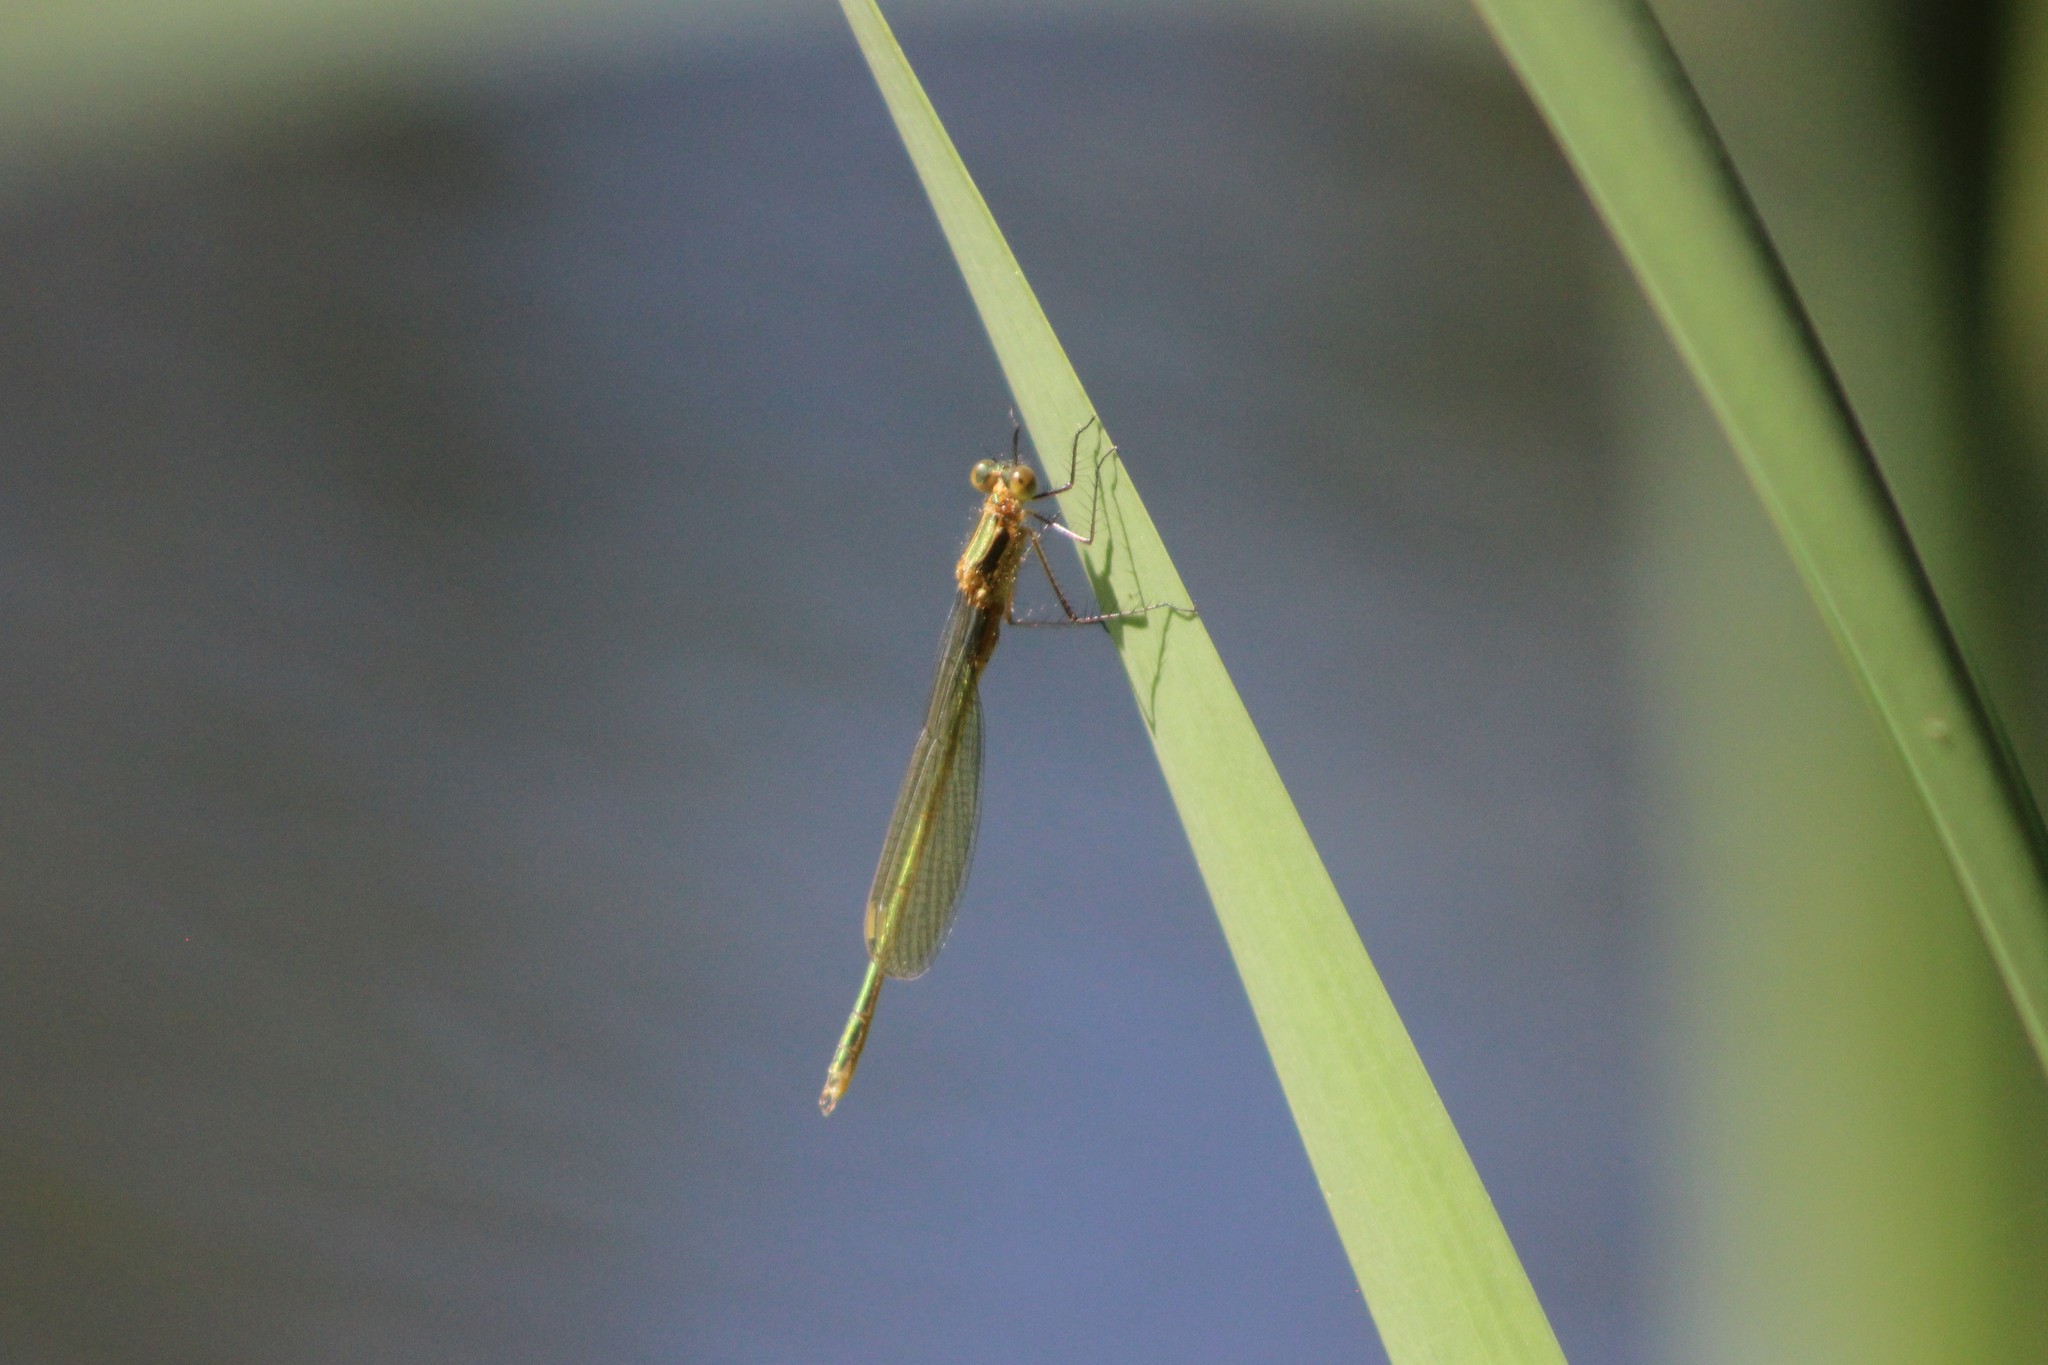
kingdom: Animalia
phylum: Arthropoda
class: Insecta
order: Odonata
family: Lestidae
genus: Lestes
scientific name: Lestes sponsa
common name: Common spreadwing
